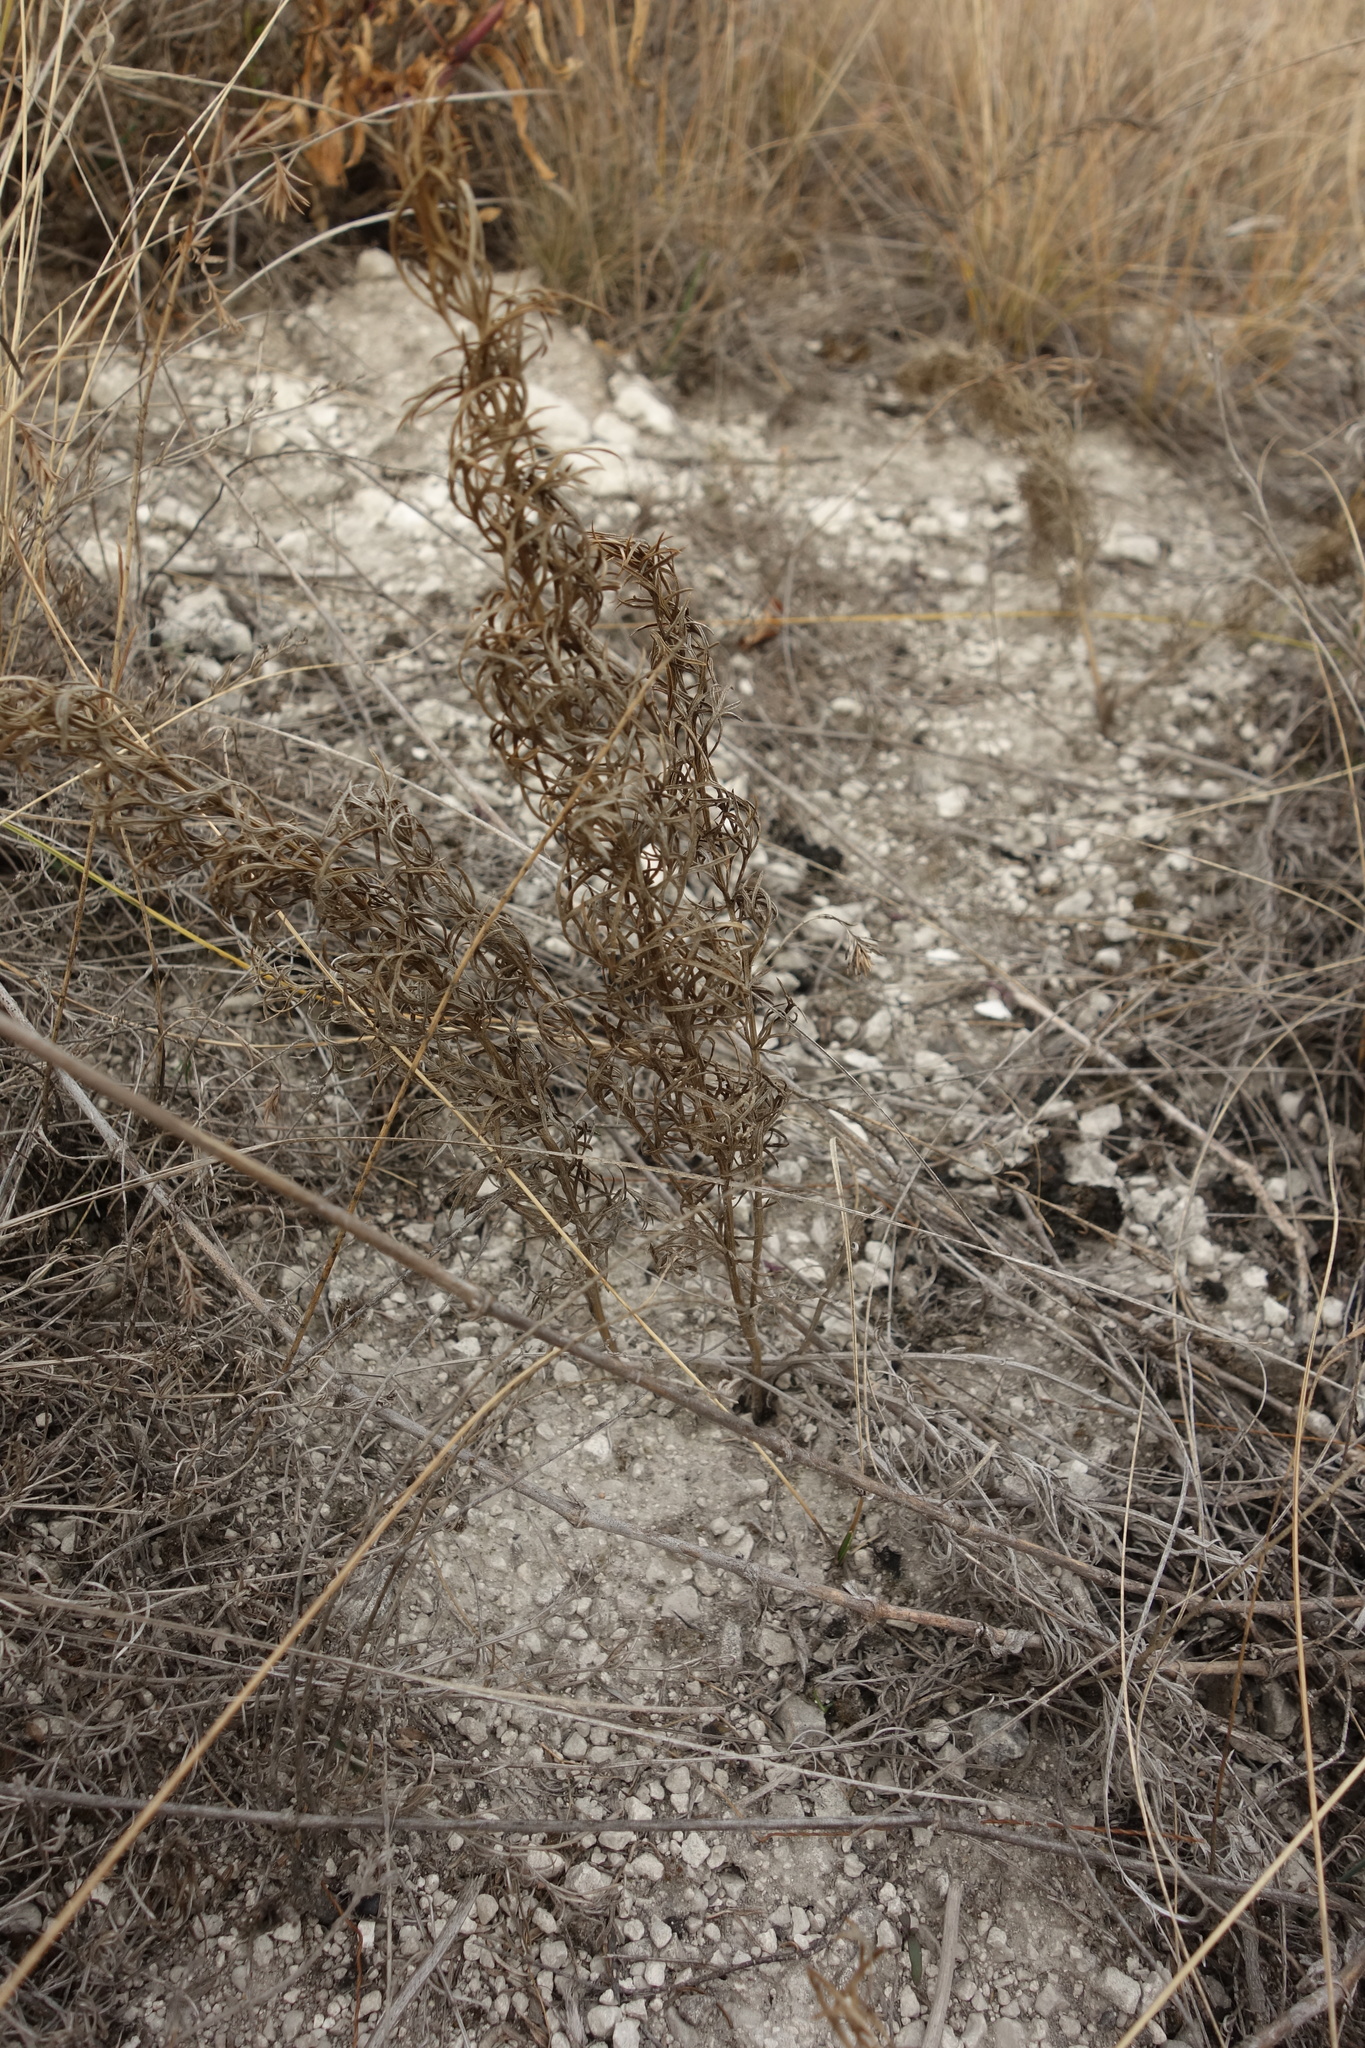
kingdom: Plantae
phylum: Tracheophyta
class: Magnoliopsida
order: Ranunculales
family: Ranunculaceae
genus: Adonis
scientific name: Adonis vernalis
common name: Yellow pheasants-eye
